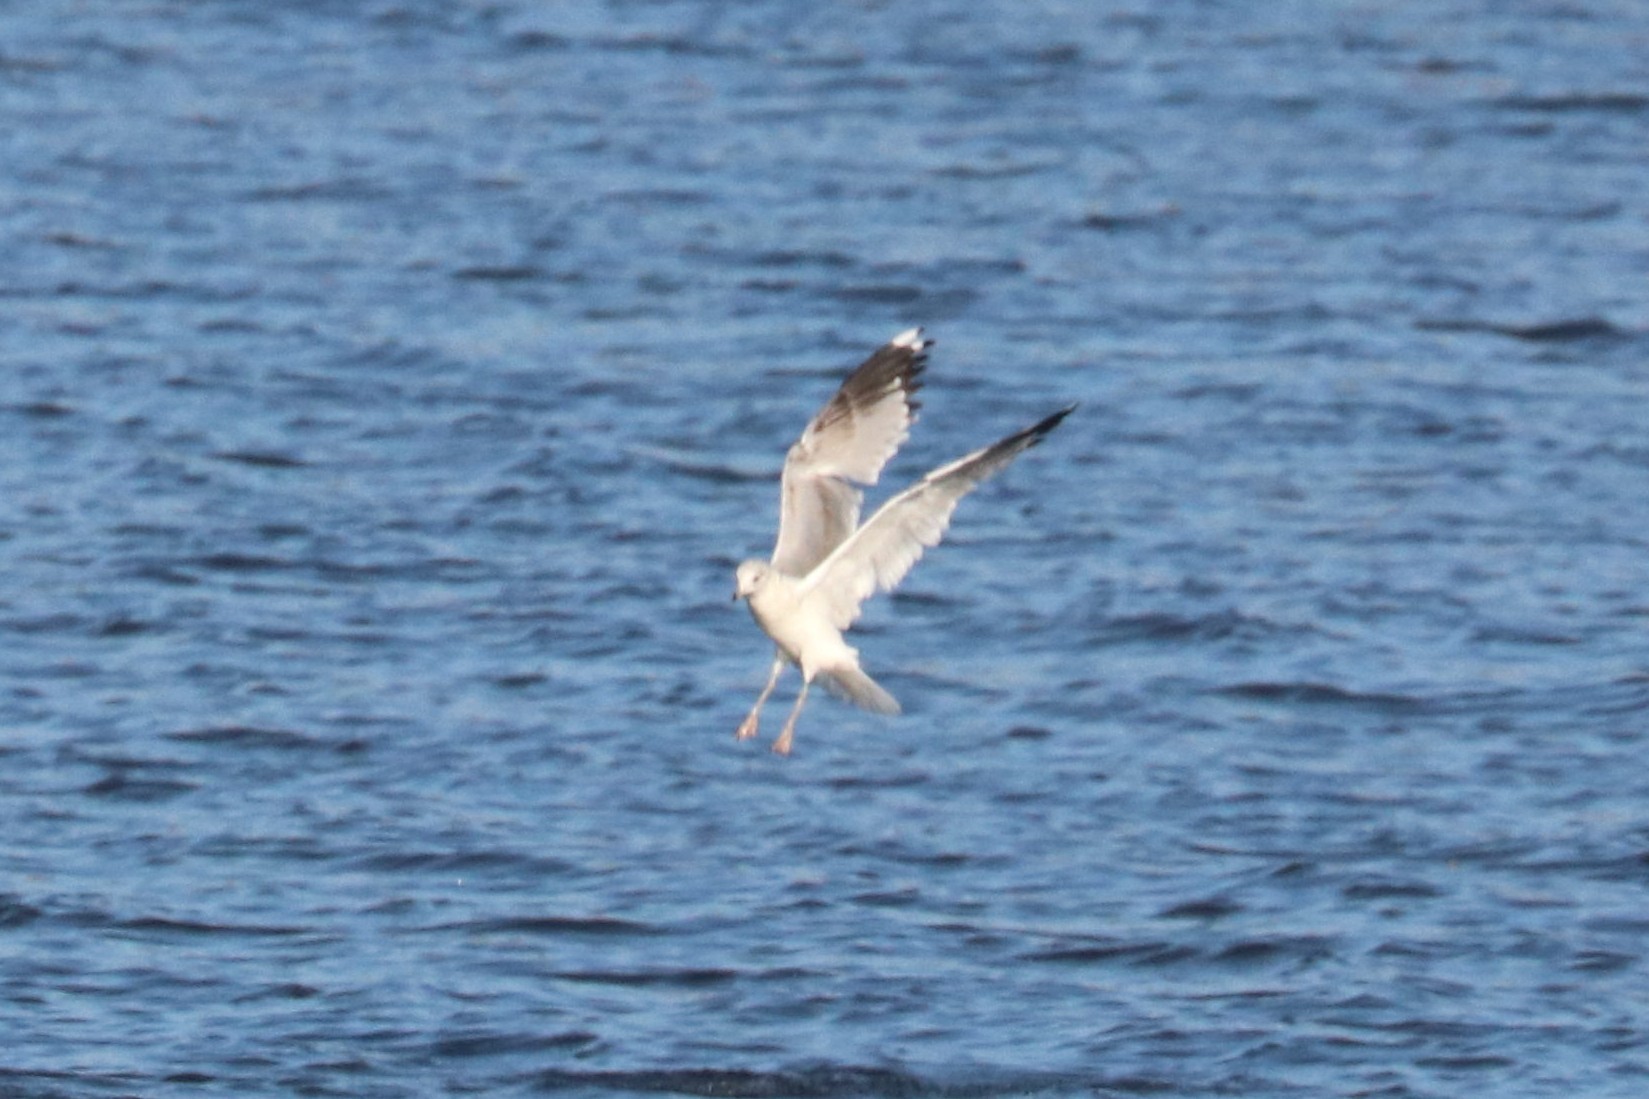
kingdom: Animalia
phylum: Chordata
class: Aves
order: Charadriiformes
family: Laridae
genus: Larus
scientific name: Larus canus
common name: Mew gull
